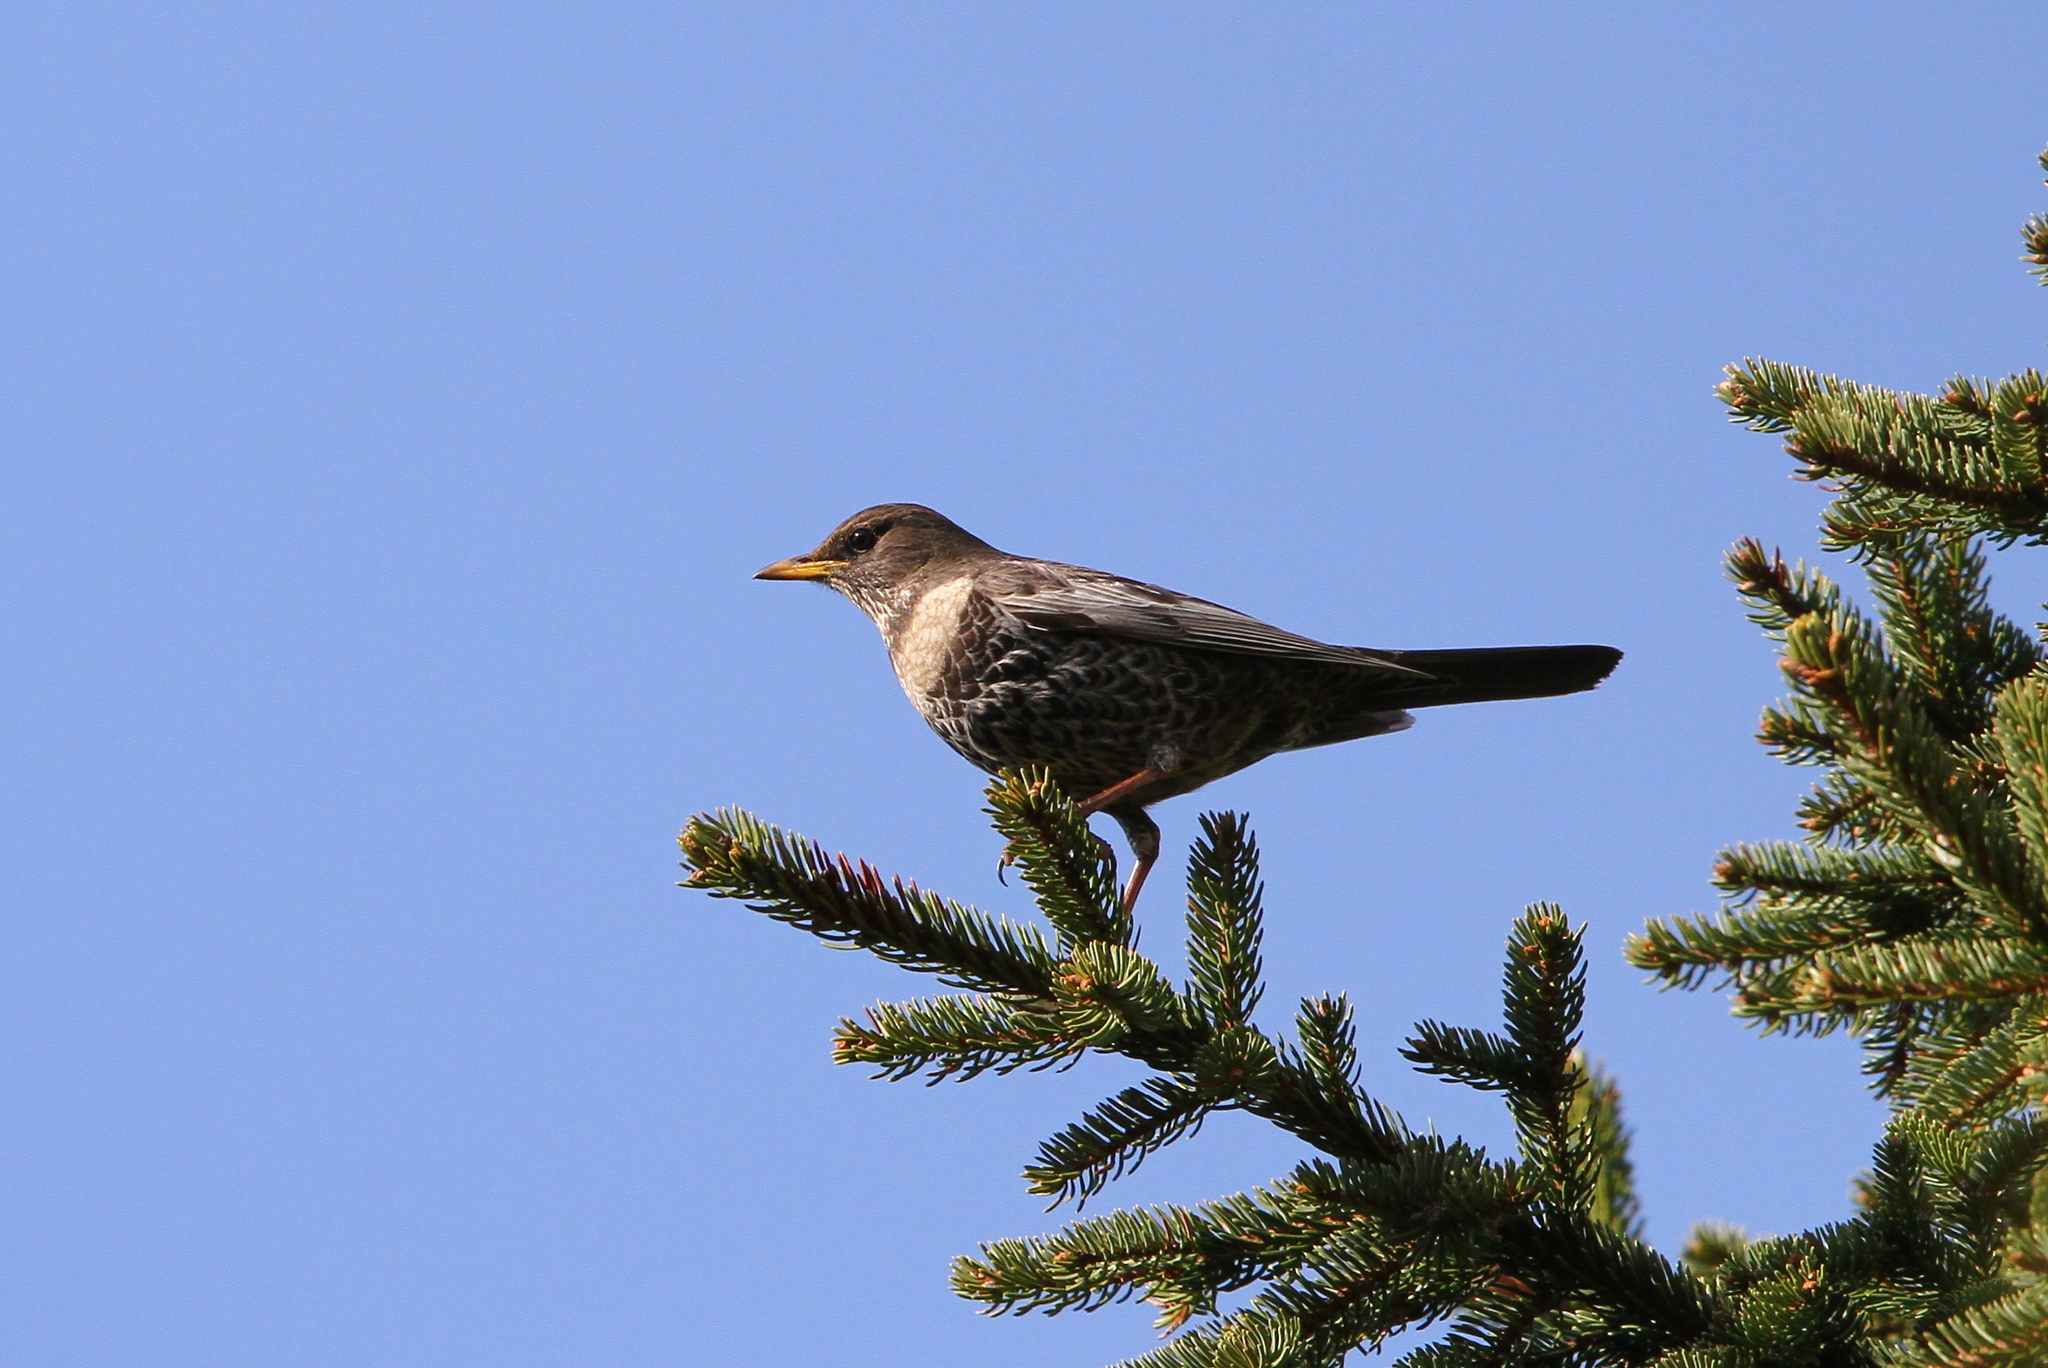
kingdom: Animalia
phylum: Chordata
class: Aves
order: Passeriformes
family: Turdidae
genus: Turdus
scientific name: Turdus torquatus
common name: Ring ouzel
